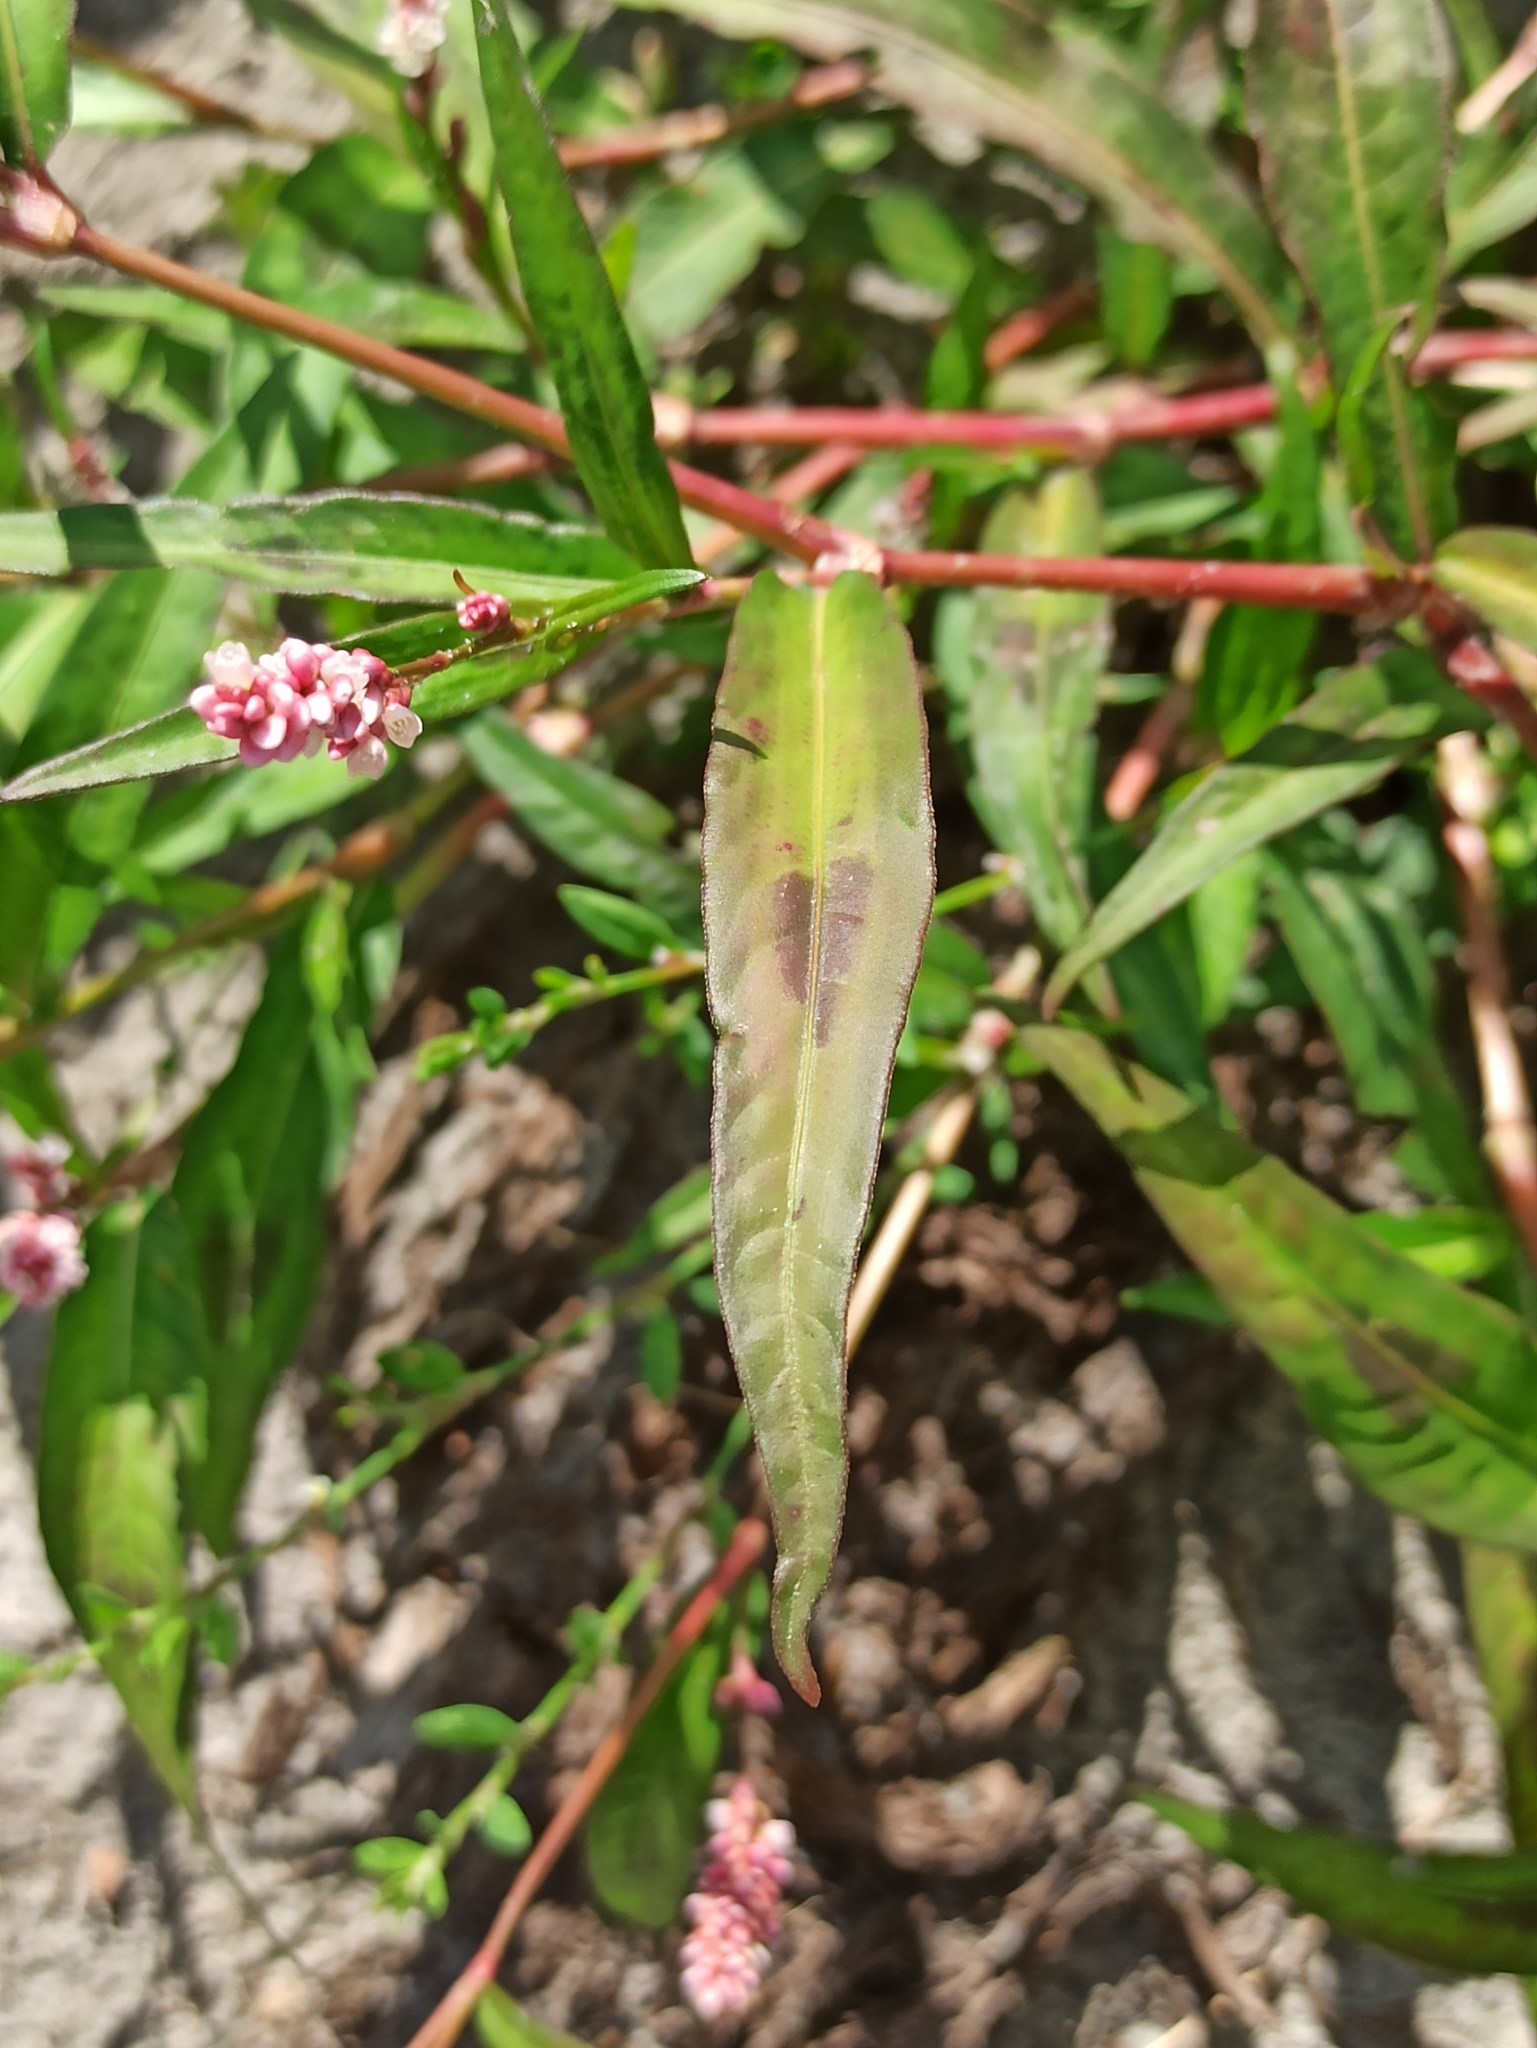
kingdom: Plantae
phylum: Tracheophyta
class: Magnoliopsida
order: Caryophyllales
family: Polygonaceae
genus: Persicaria
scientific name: Persicaria maculosa
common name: Redshank
